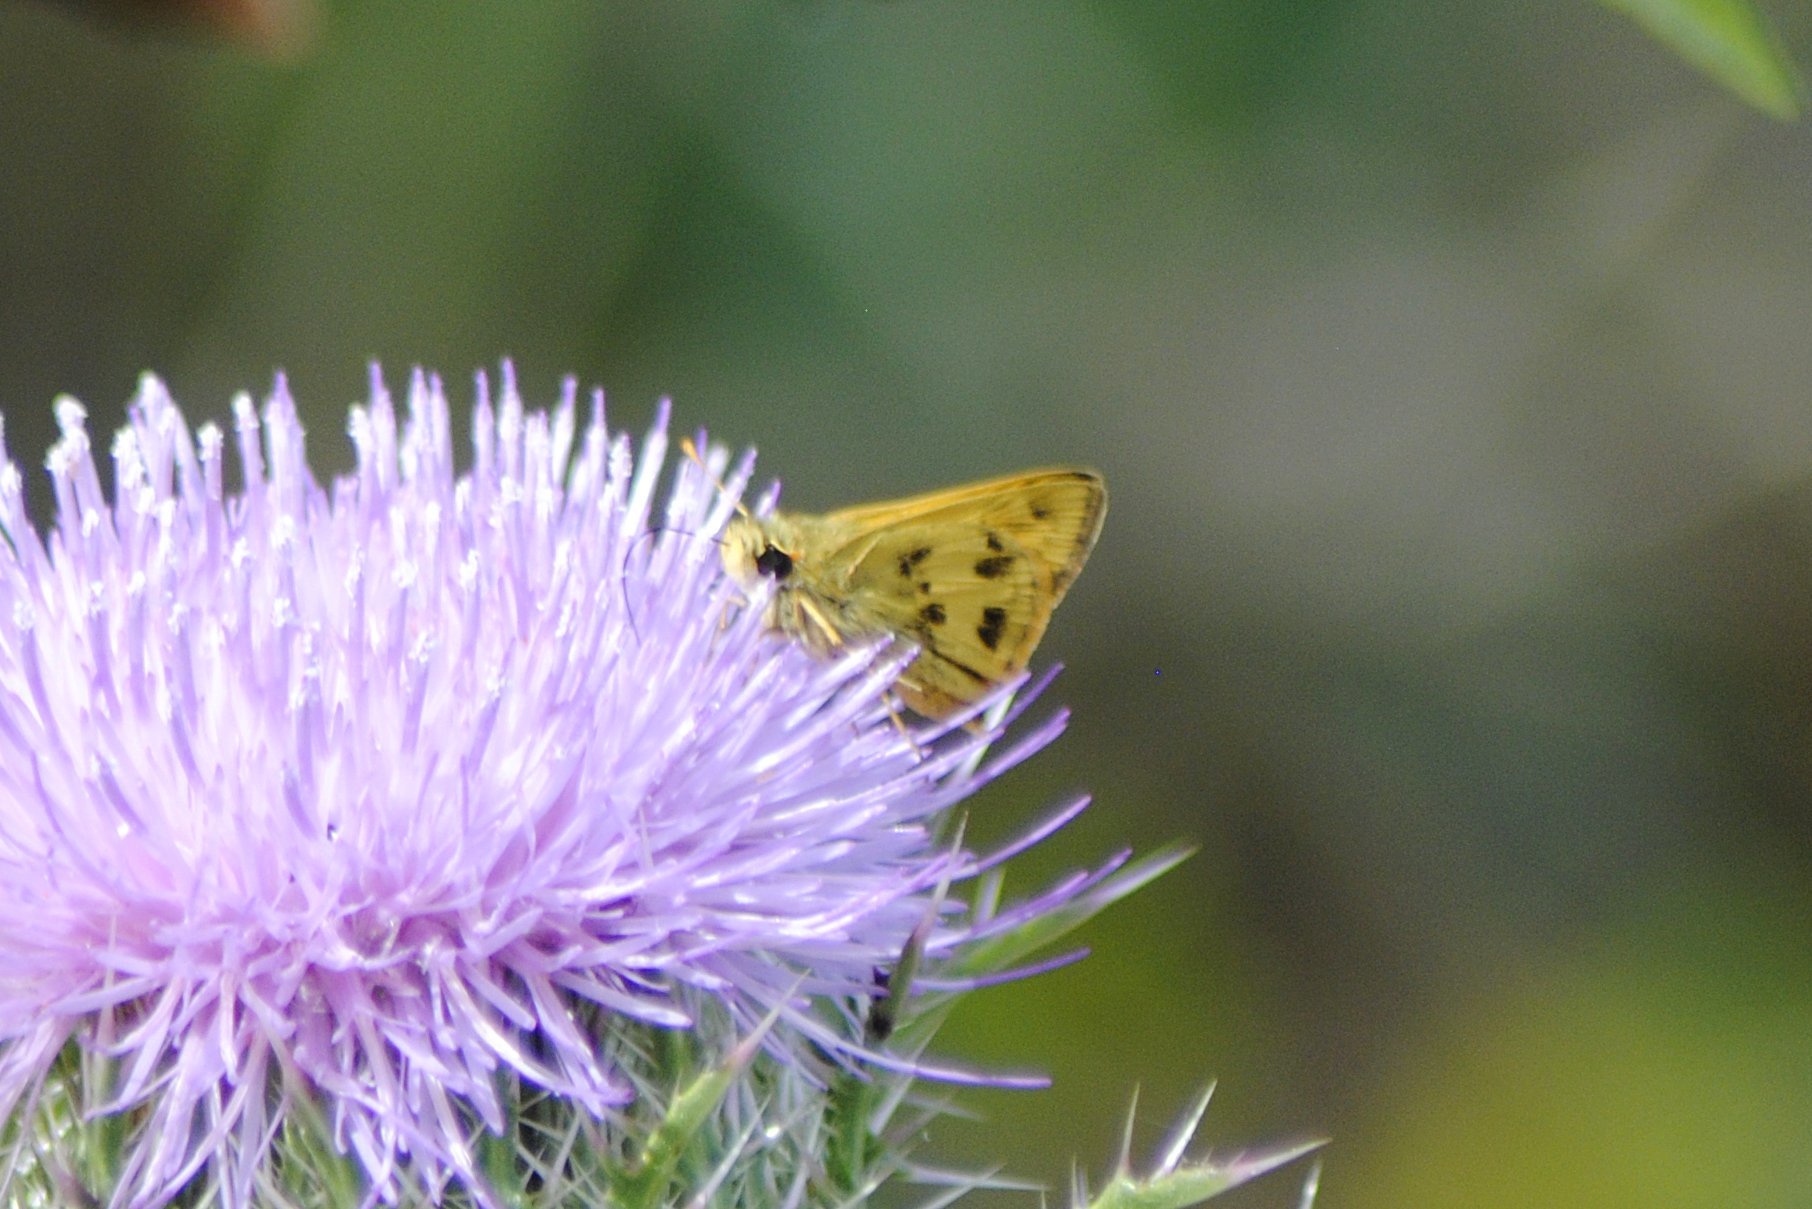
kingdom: Animalia
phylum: Arthropoda
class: Insecta
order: Lepidoptera
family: Hesperiidae
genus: Polites
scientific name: Polites vibex
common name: Whirlabout
